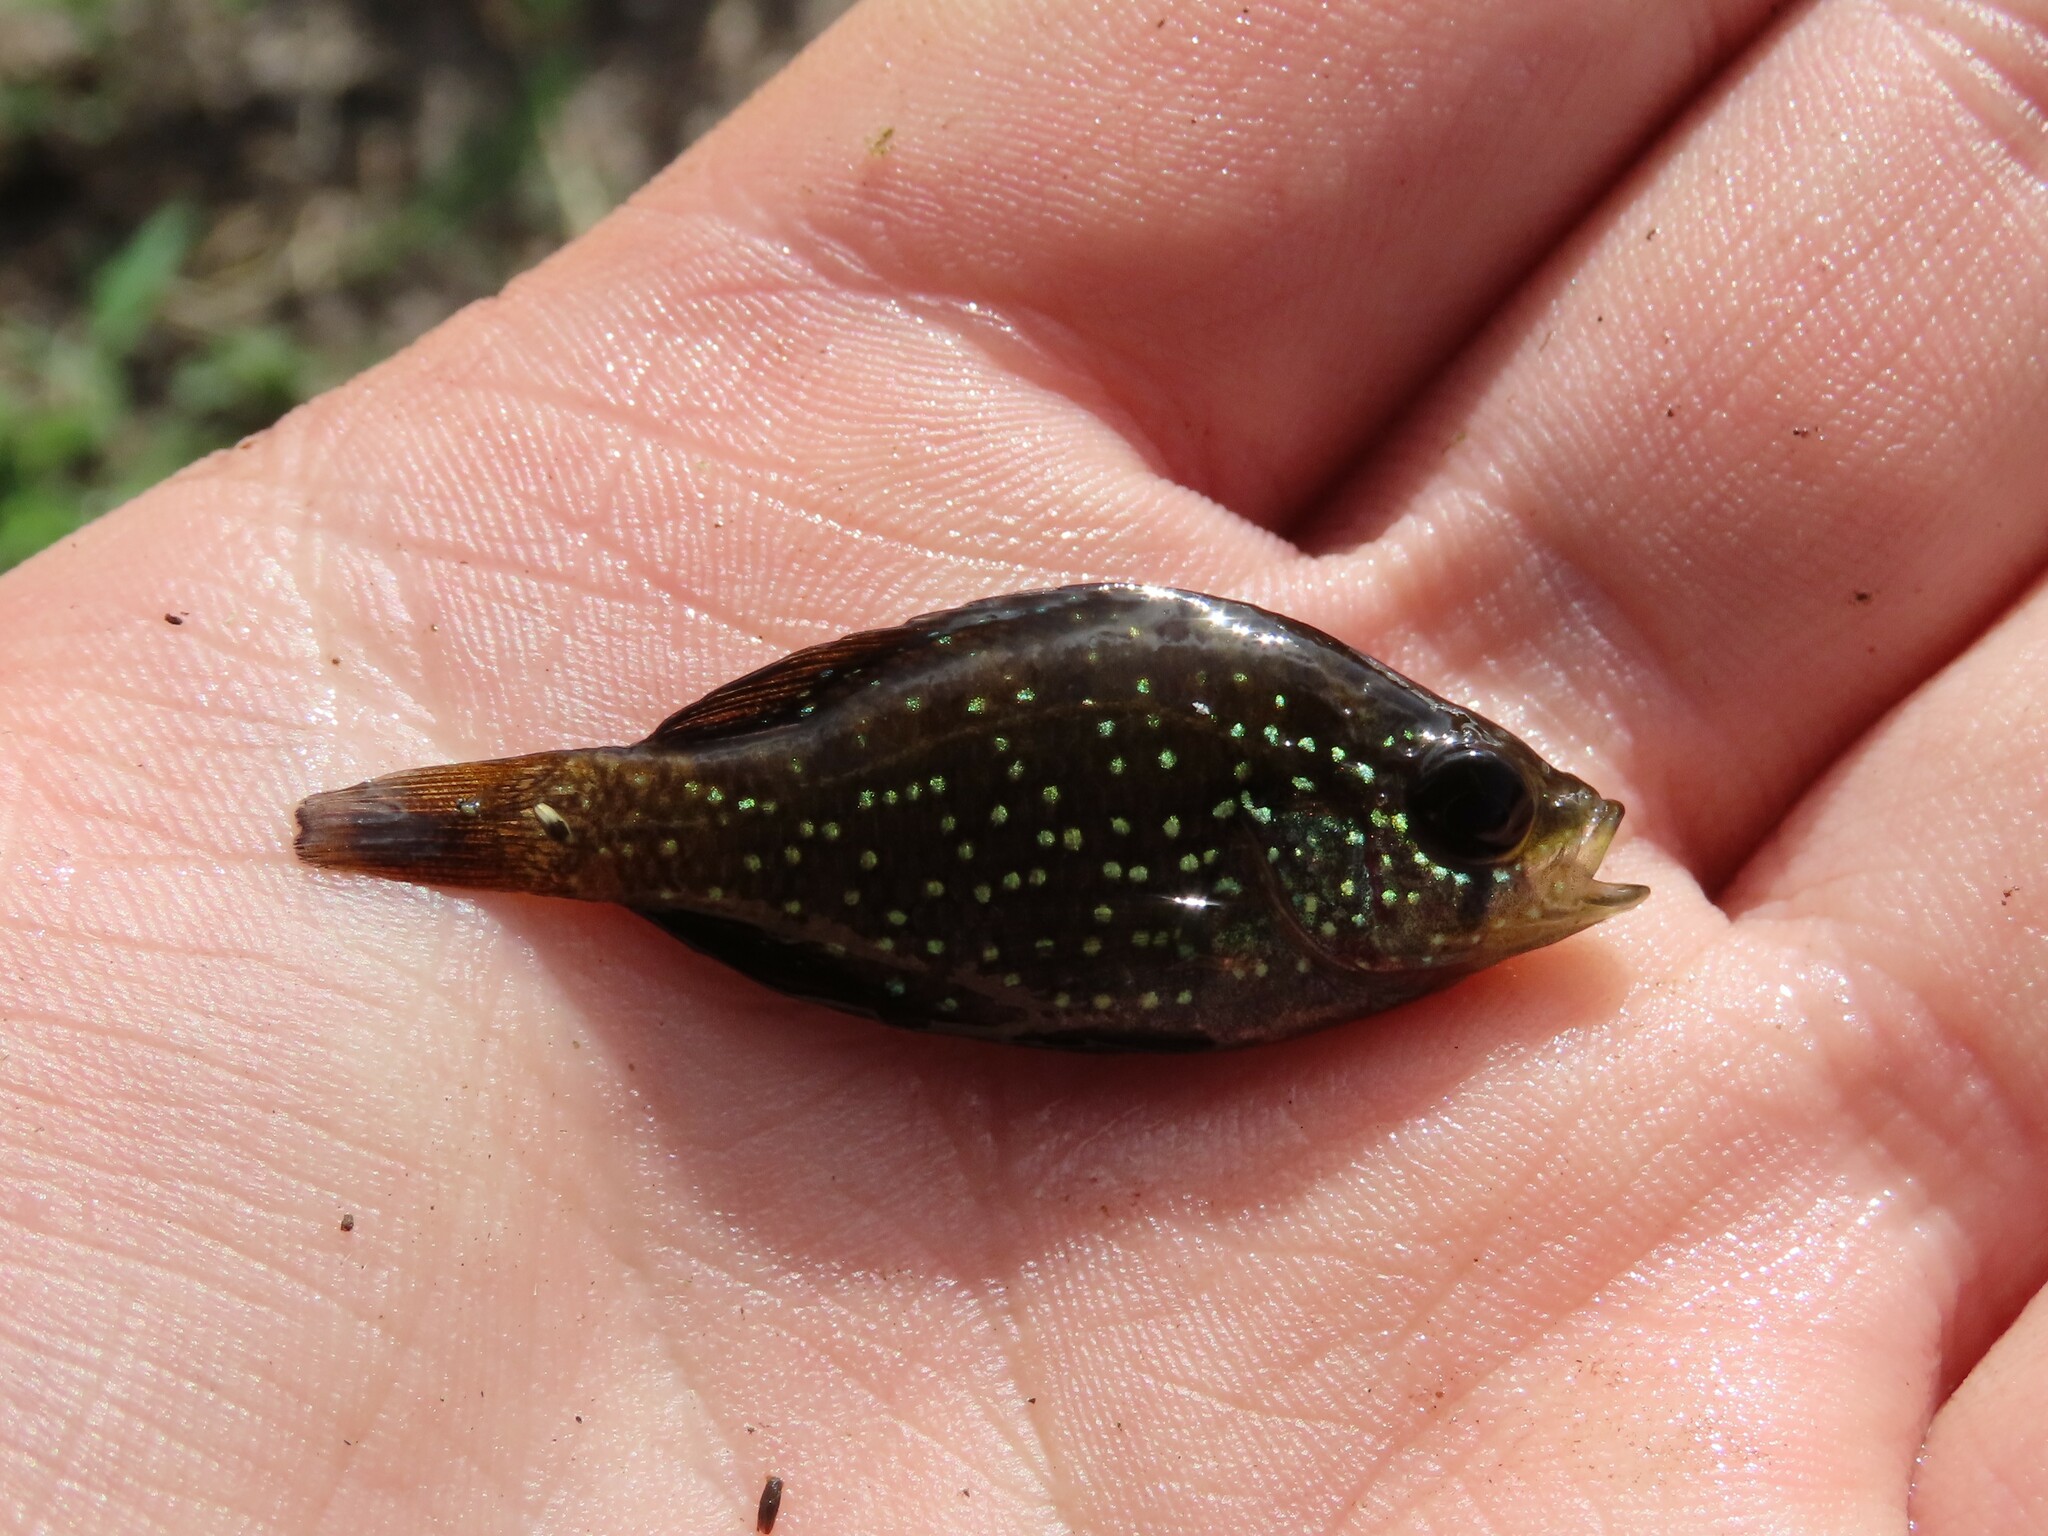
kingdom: Animalia
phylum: Chordata
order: Perciformes
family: Centrarchidae
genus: Enneacanthus
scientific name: Enneacanthus gloriosus
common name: Bluespotted sunfish
